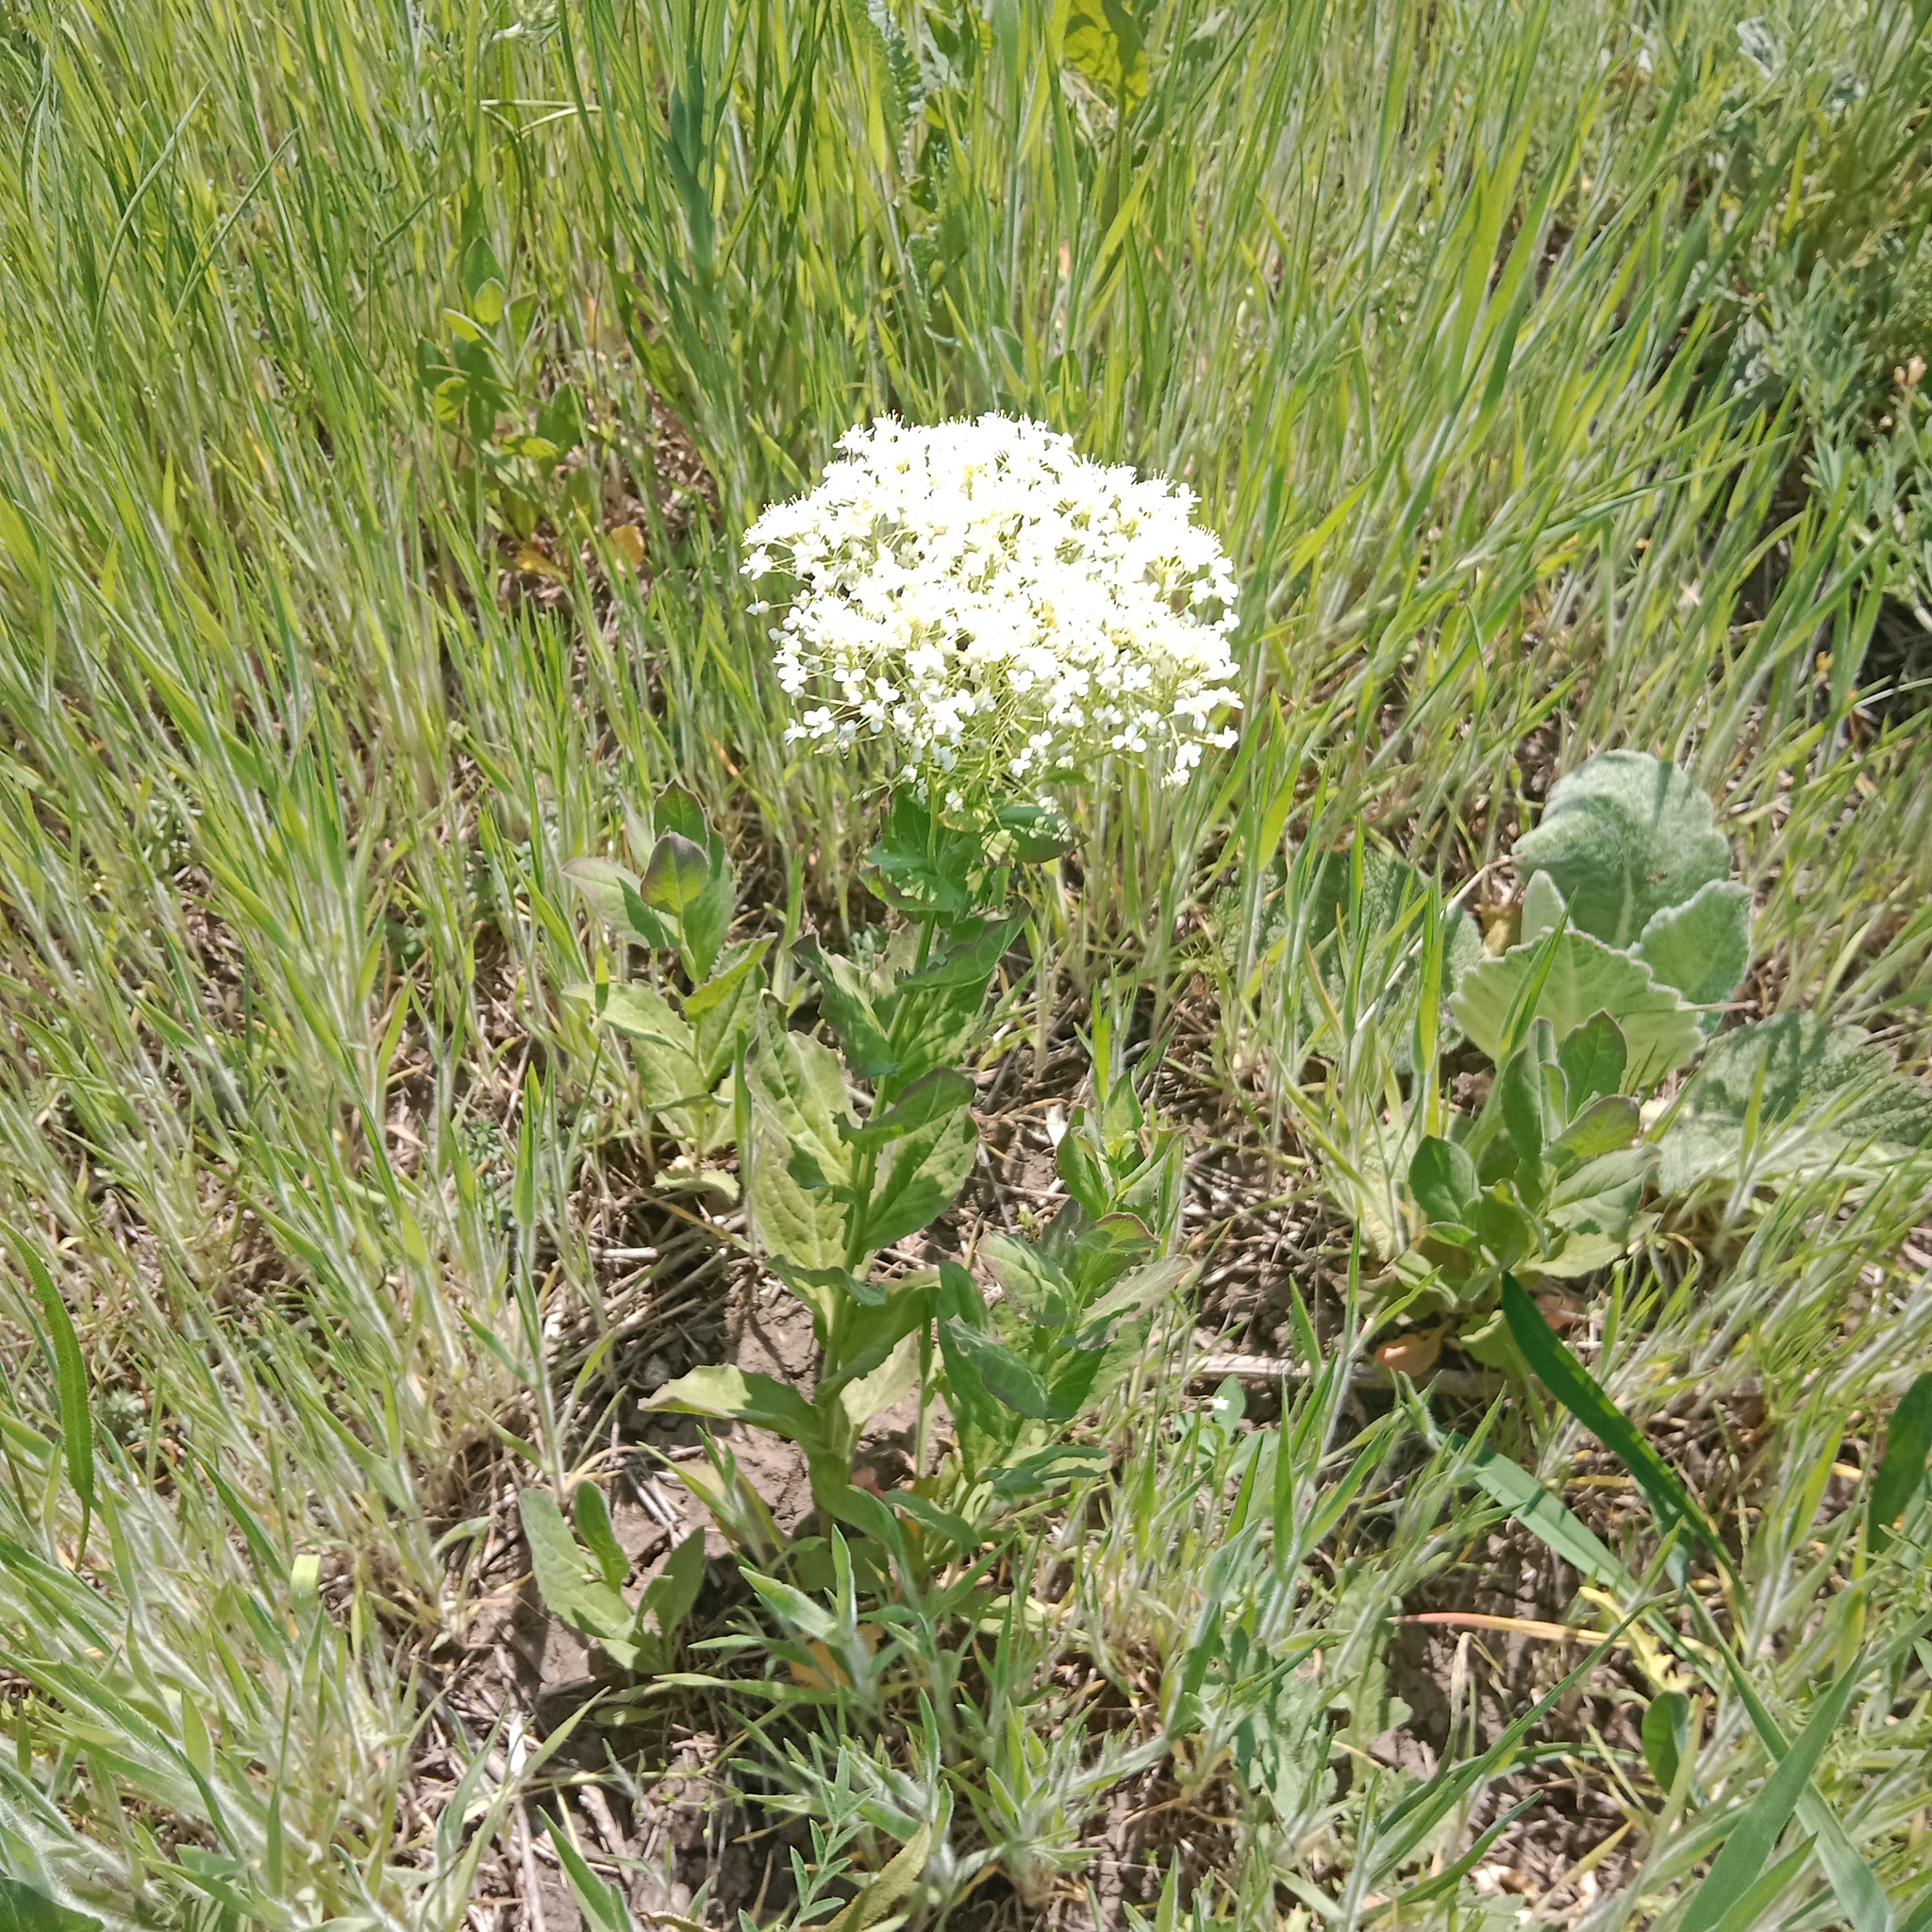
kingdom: Plantae
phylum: Tracheophyta
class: Magnoliopsida
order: Brassicales
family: Brassicaceae
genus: Lepidium
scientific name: Lepidium draba
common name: Hoary cress
